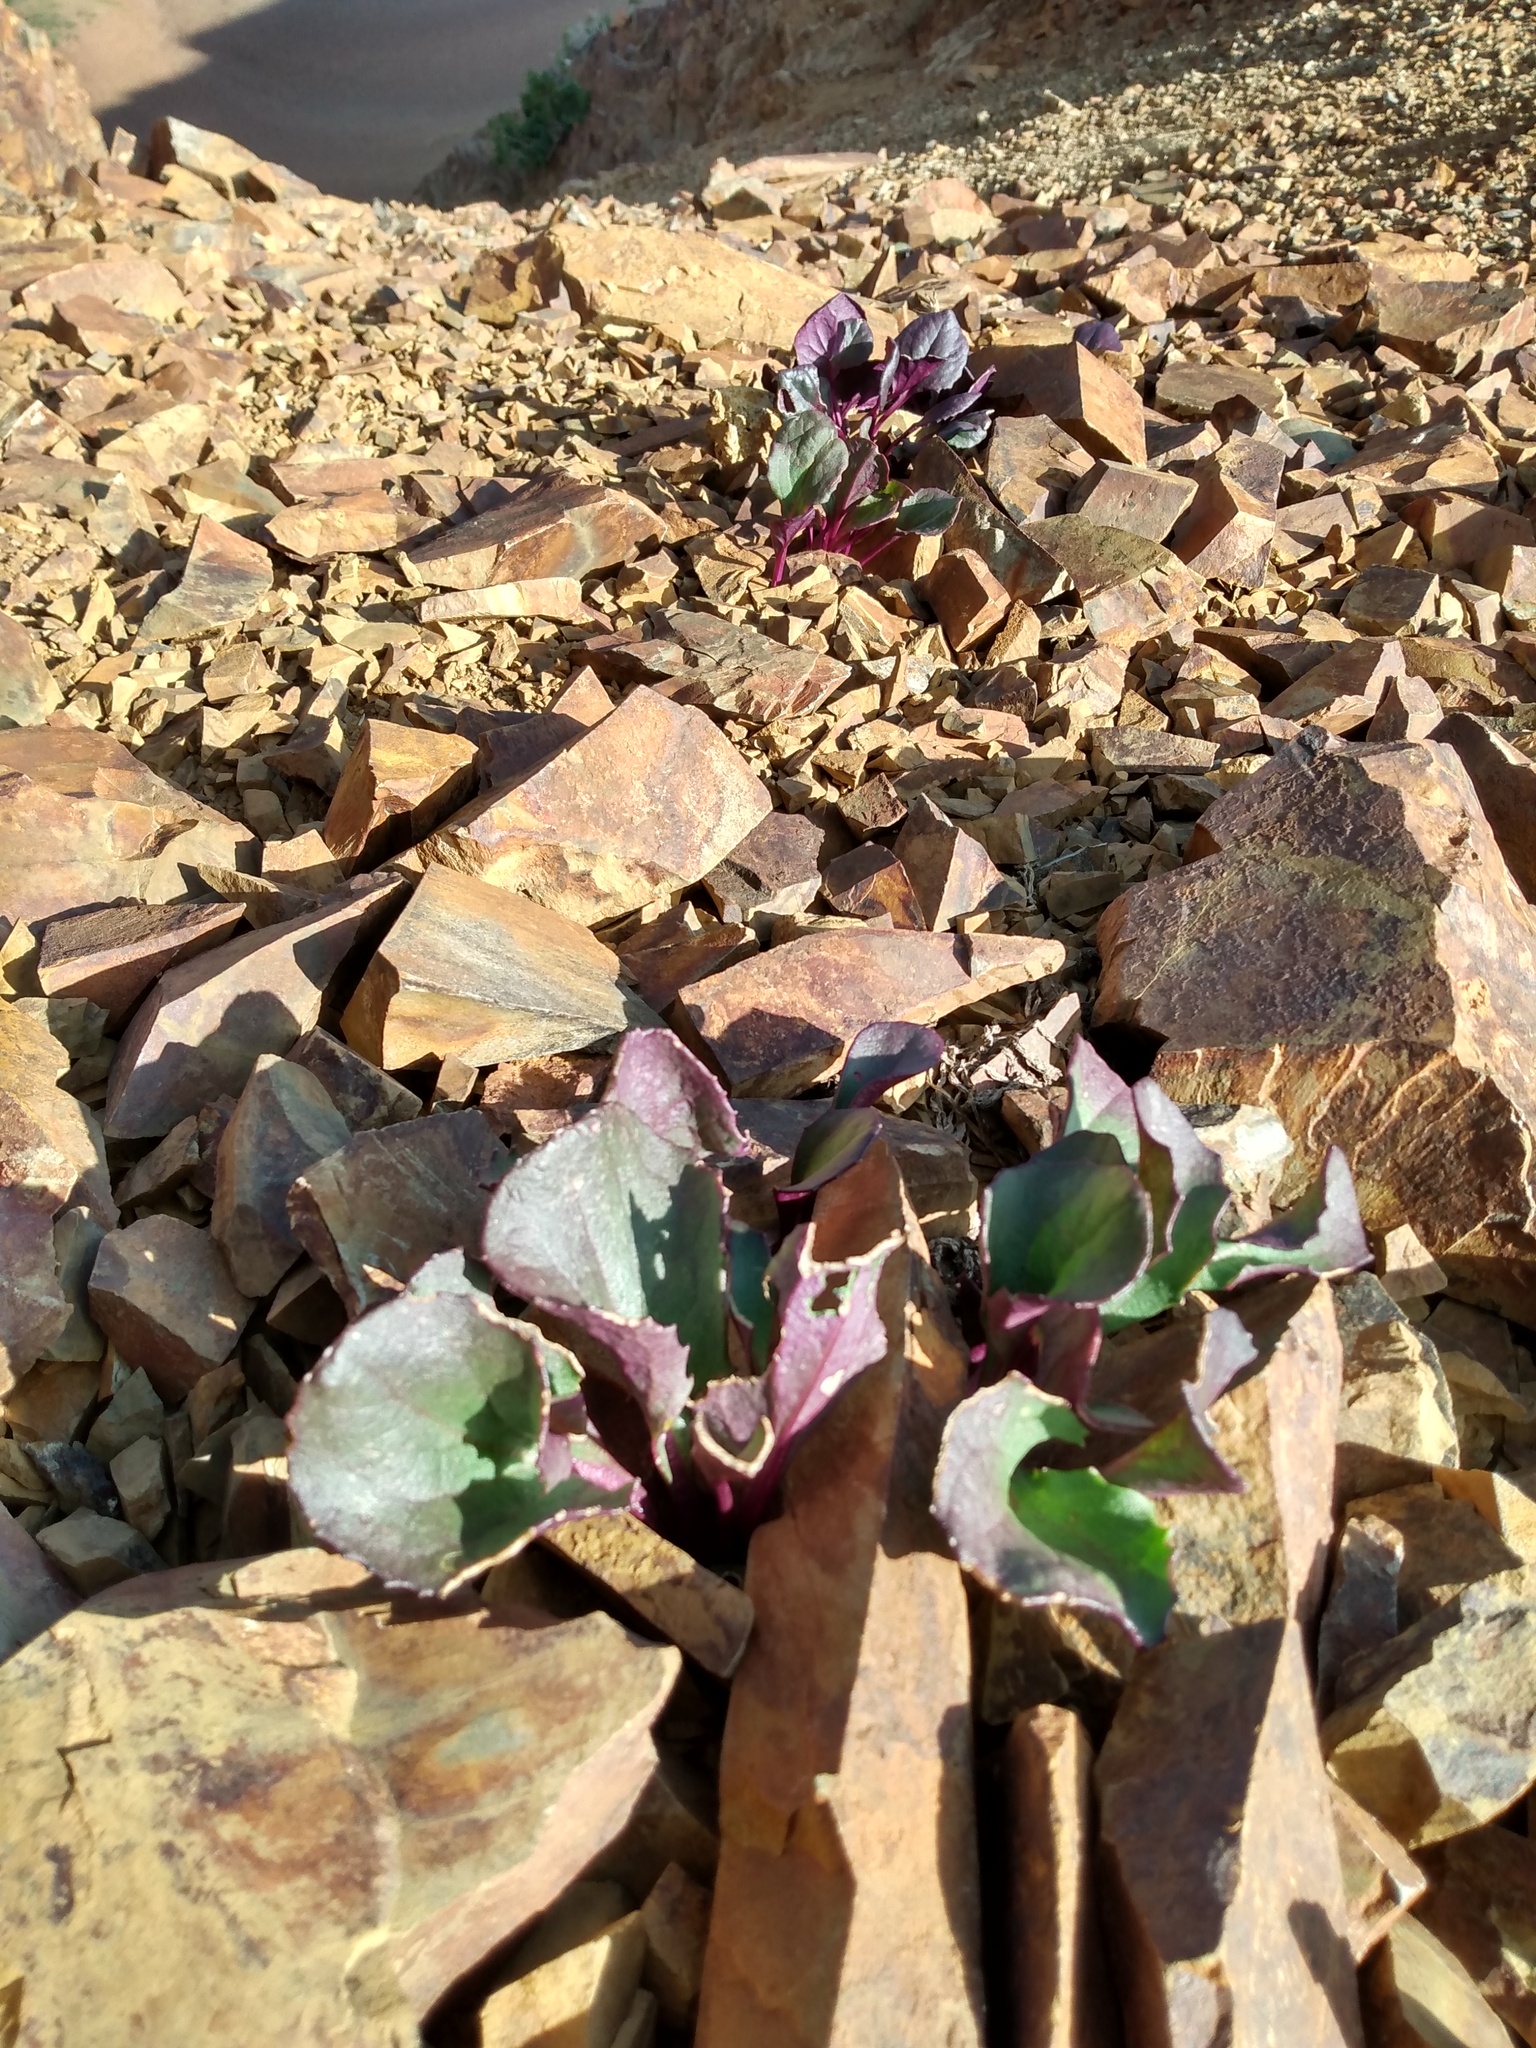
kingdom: Plantae
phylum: Tracheophyta
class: Magnoliopsida
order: Asterales
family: Asteraceae
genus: Senecio
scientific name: Senecio soldanella
